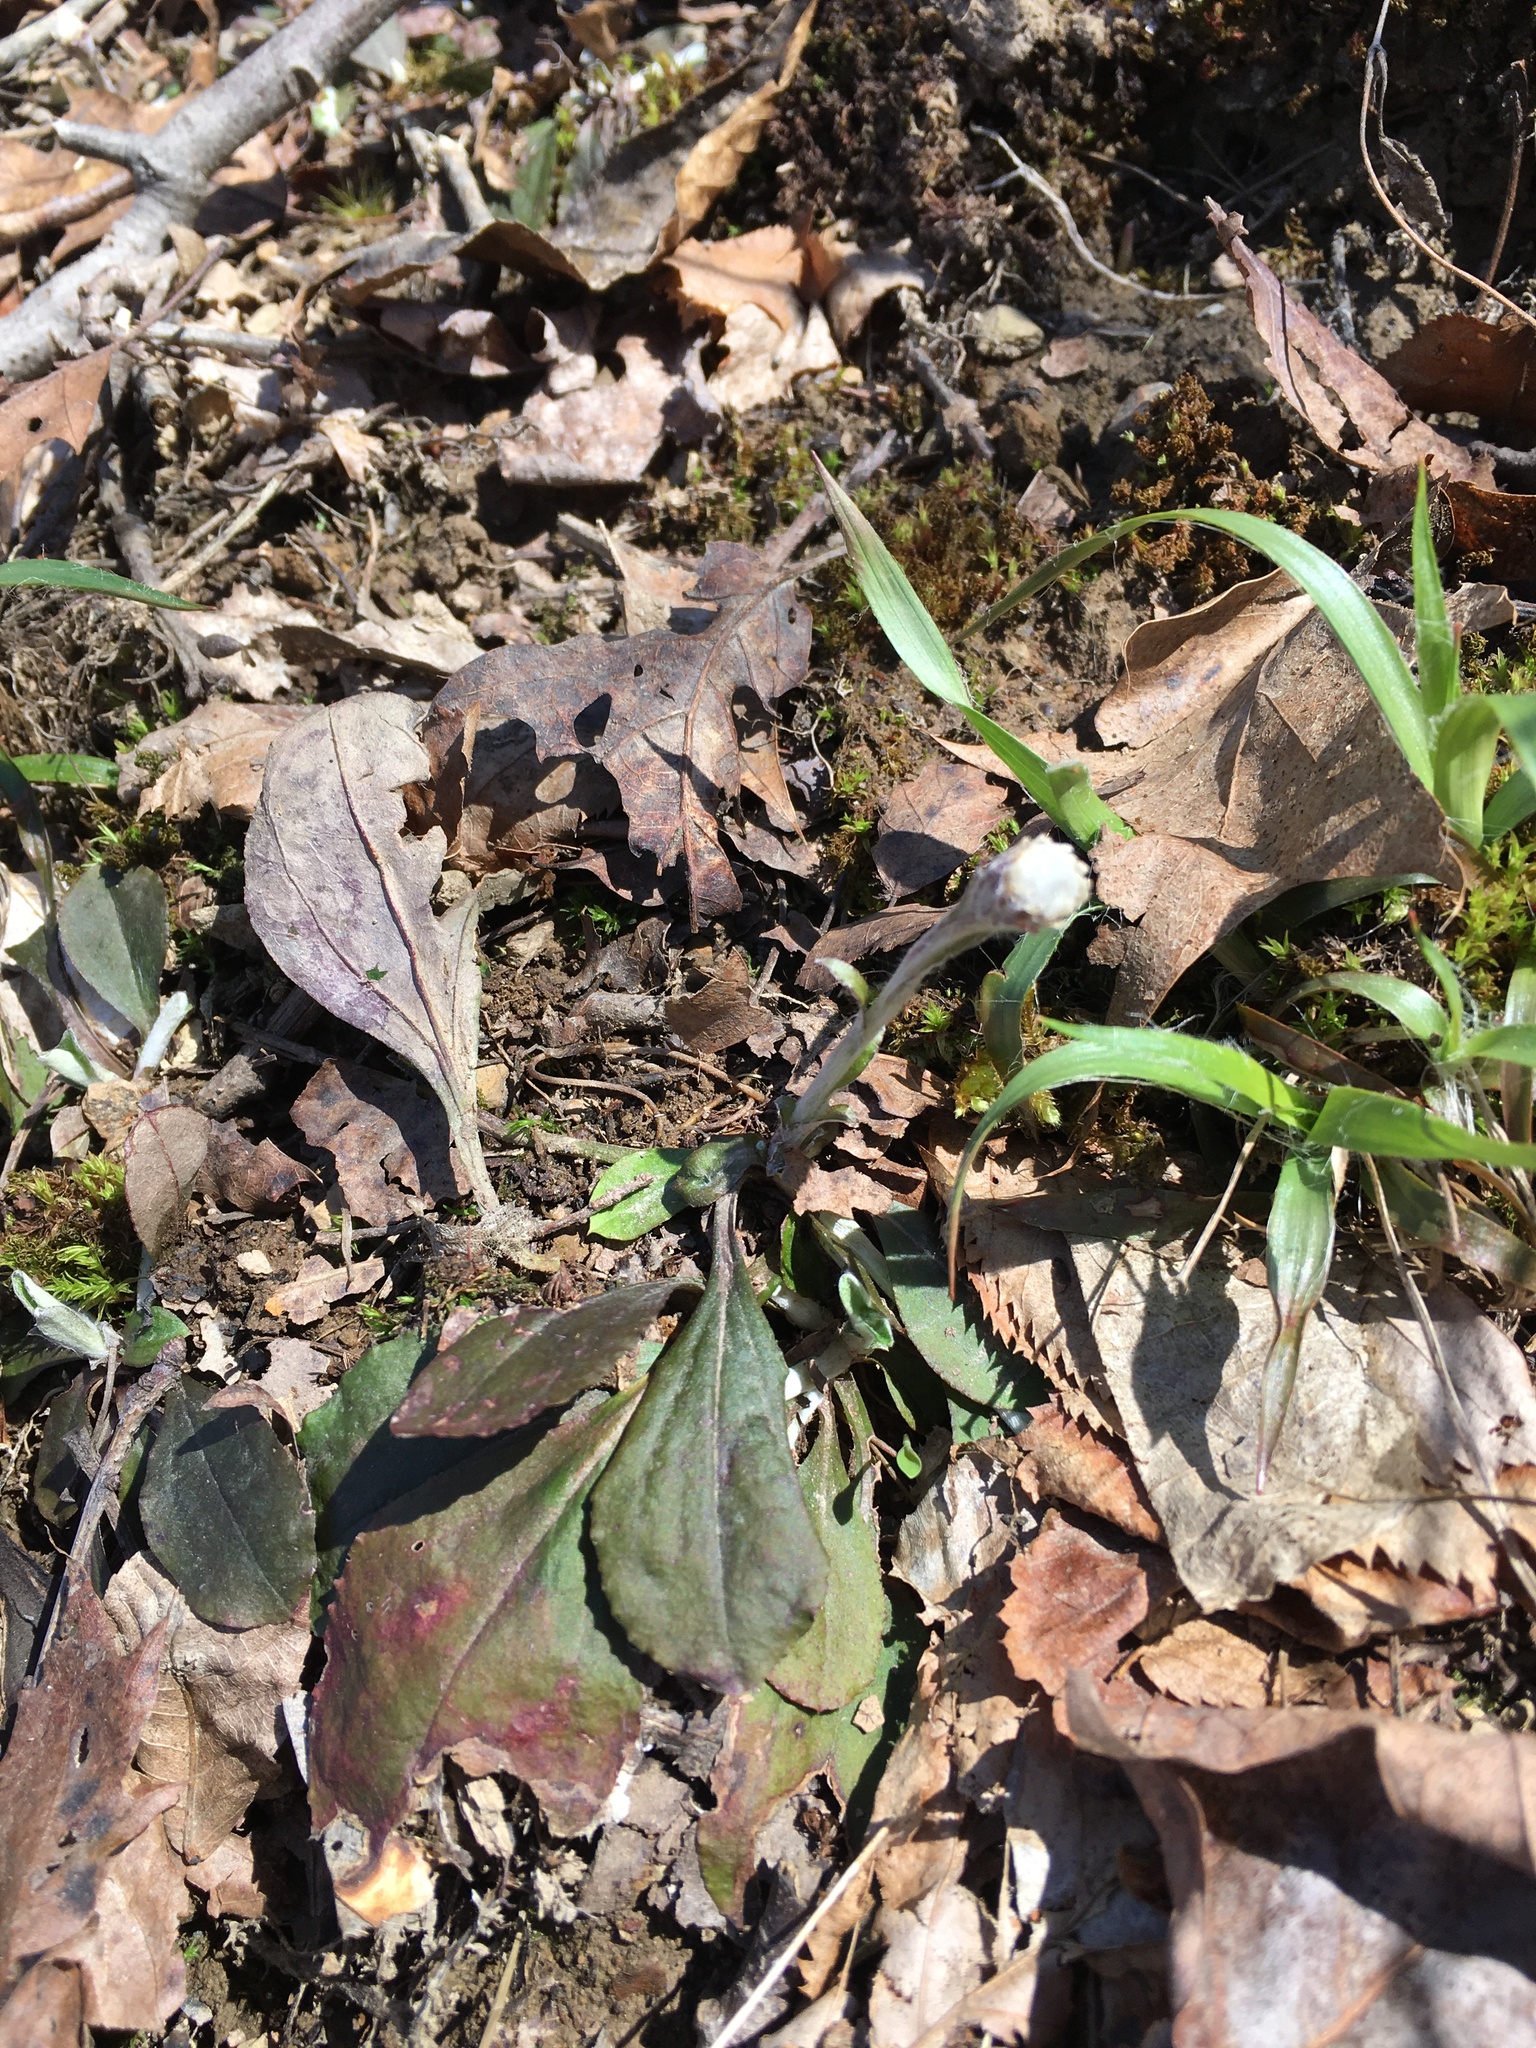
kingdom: Plantae
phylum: Tracheophyta
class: Magnoliopsida
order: Asterales
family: Asteraceae
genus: Antennaria
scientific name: Antennaria solitaria
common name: Single-head pussytoes
